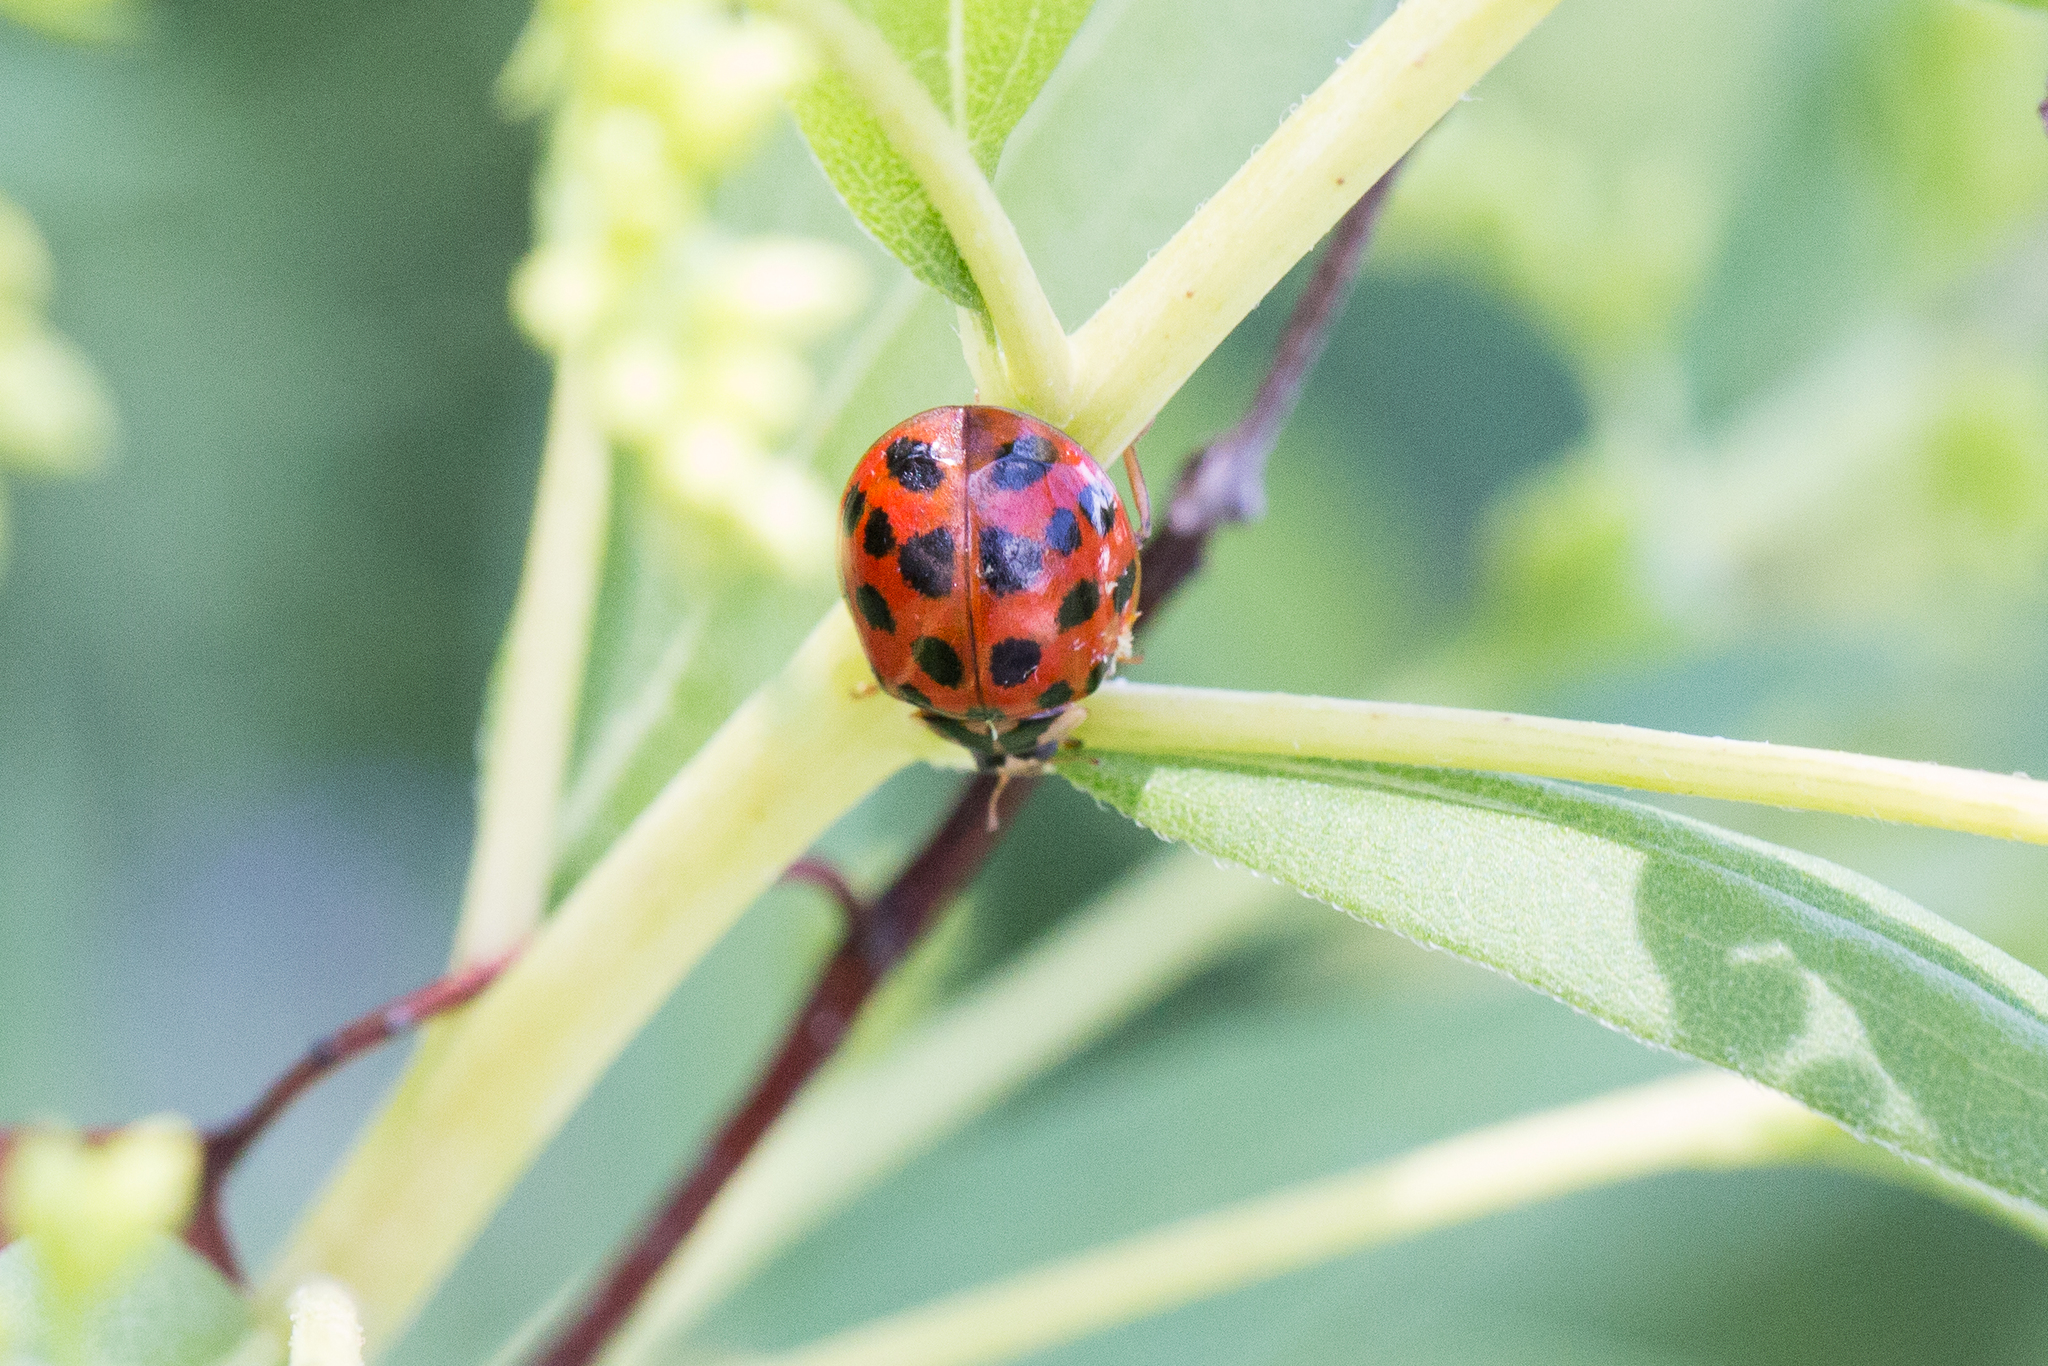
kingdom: Animalia
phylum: Arthropoda
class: Insecta
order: Coleoptera
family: Coccinellidae
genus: Harmonia
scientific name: Harmonia axyridis
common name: Harlequin ladybird
